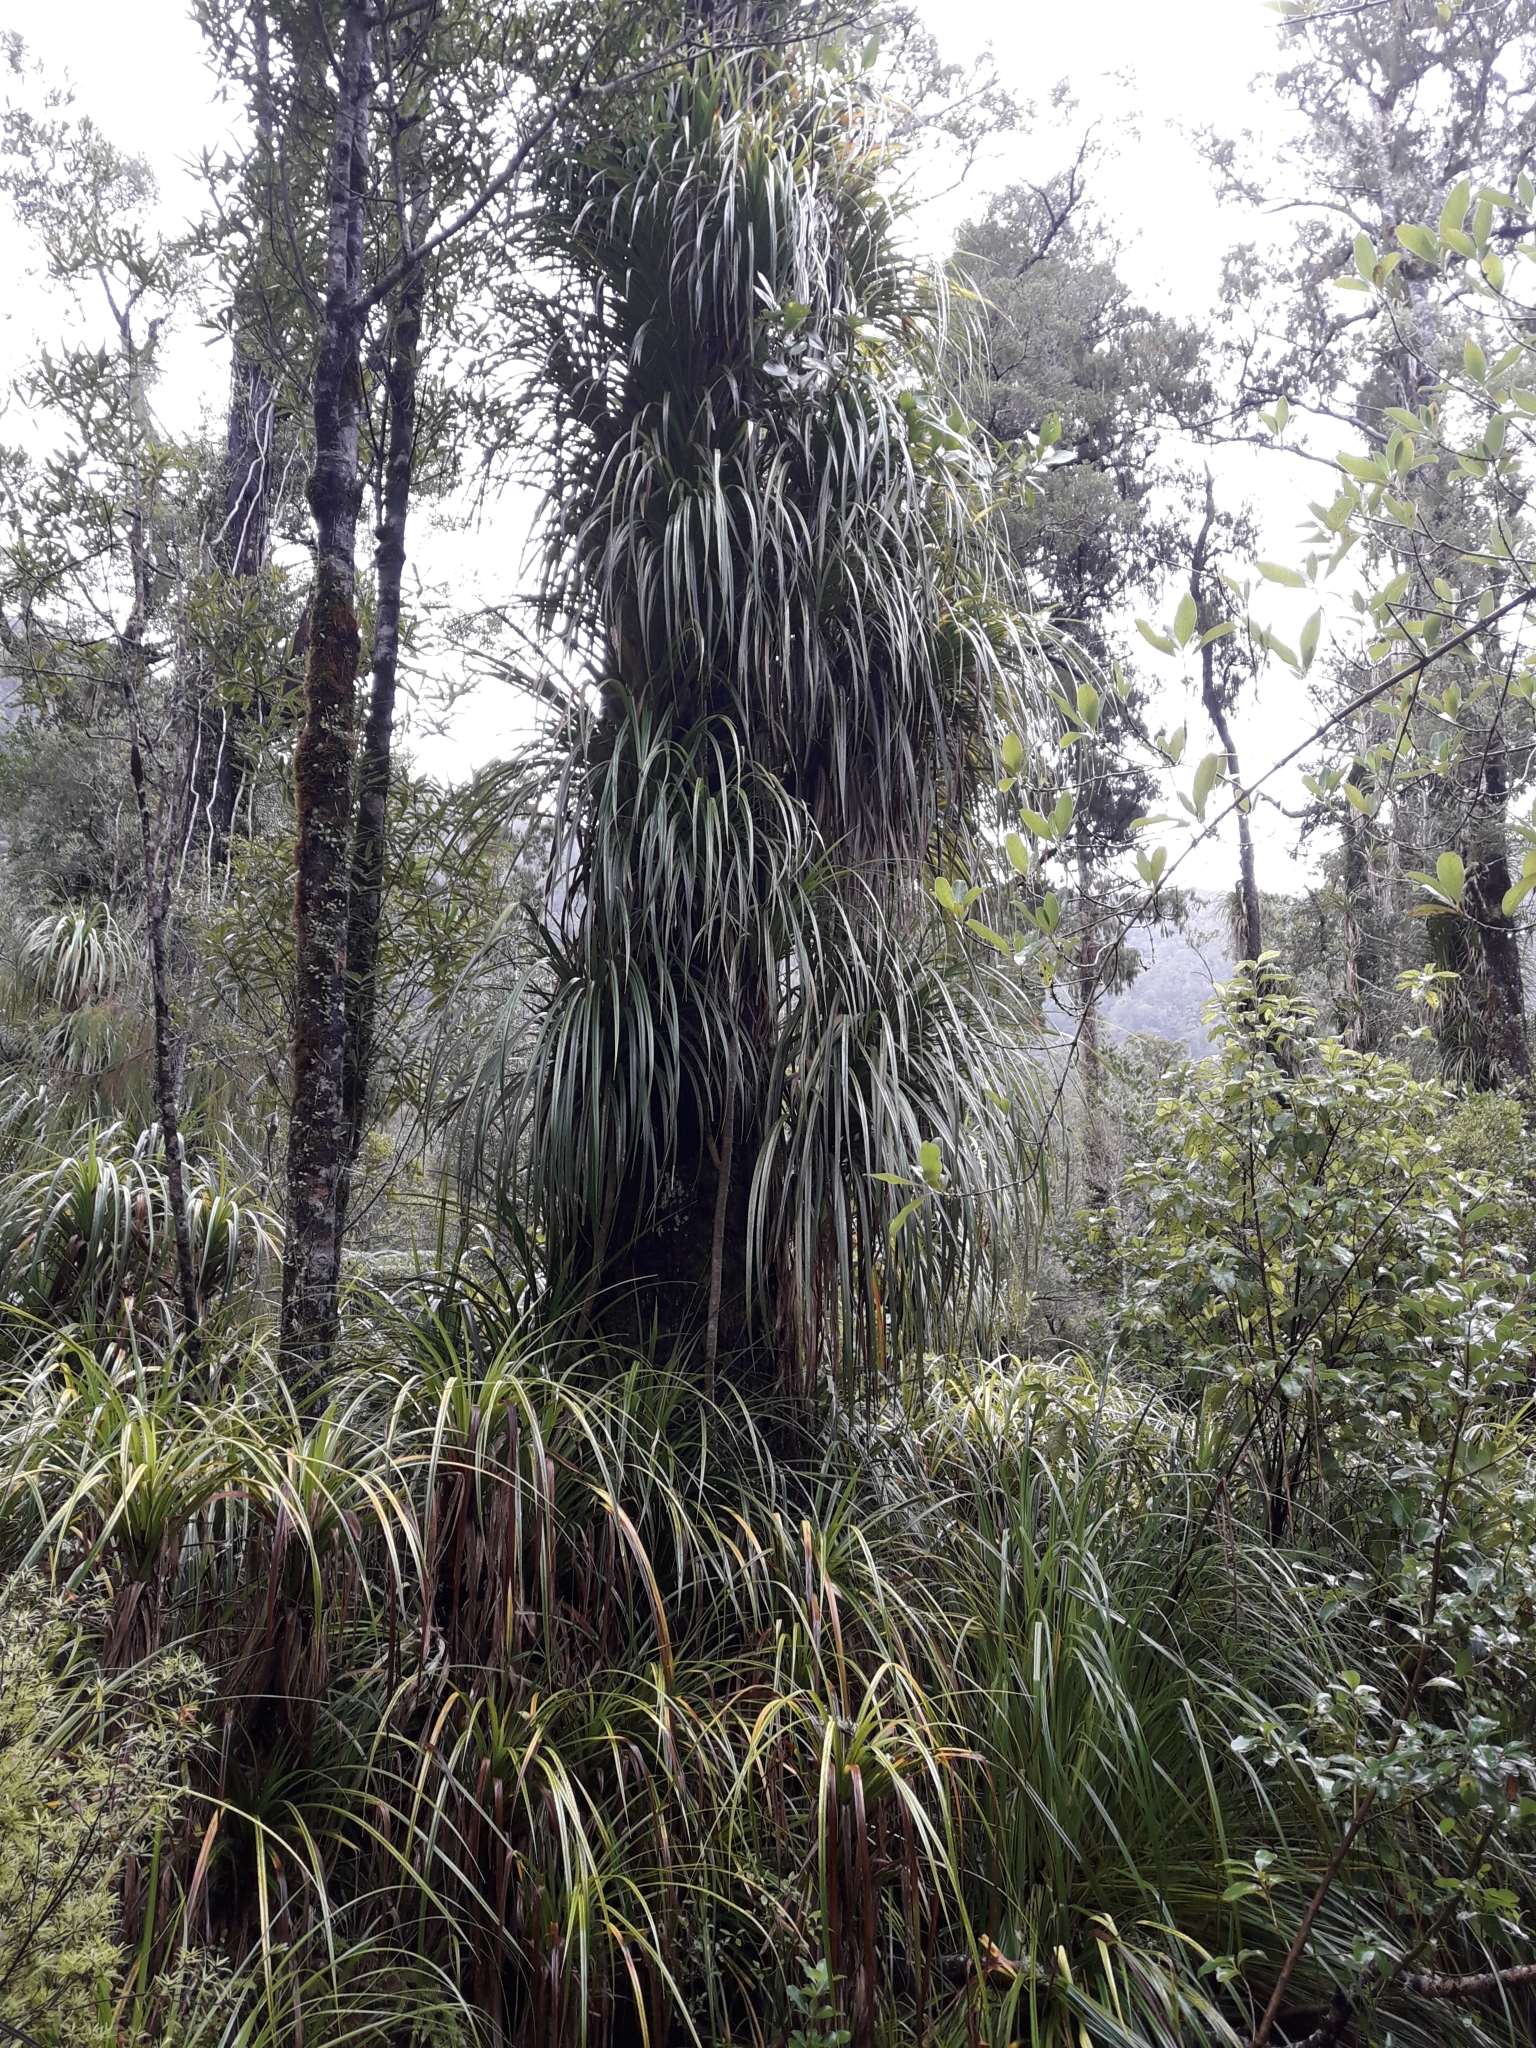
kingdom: Plantae
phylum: Tracheophyta
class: Liliopsida
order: Pandanales
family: Pandanaceae
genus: Freycinetia
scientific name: Freycinetia banksii
